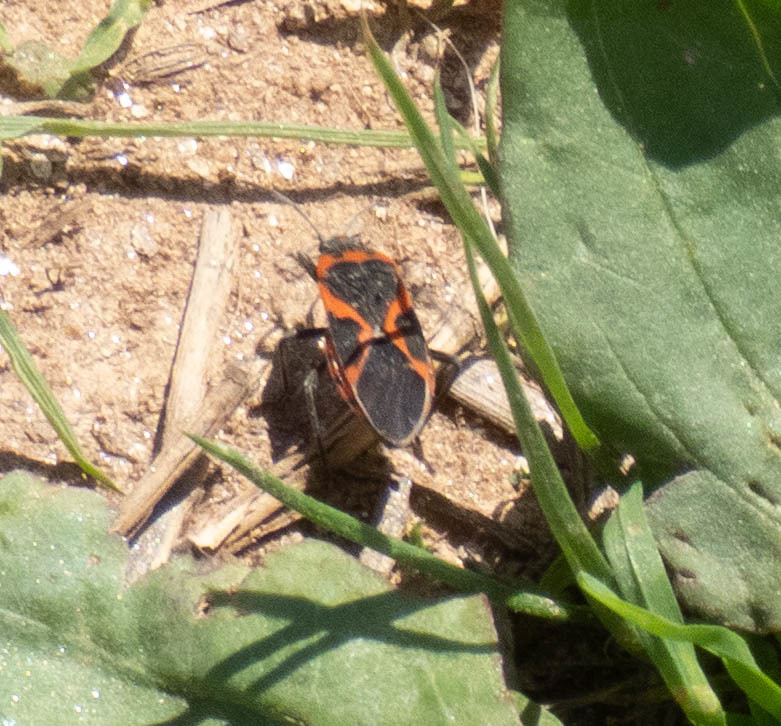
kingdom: Animalia
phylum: Arthropoda
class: Insecta
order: Hemiptera
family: Lygaeidae
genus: Lygaeus
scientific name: Lygaeus kalmii
